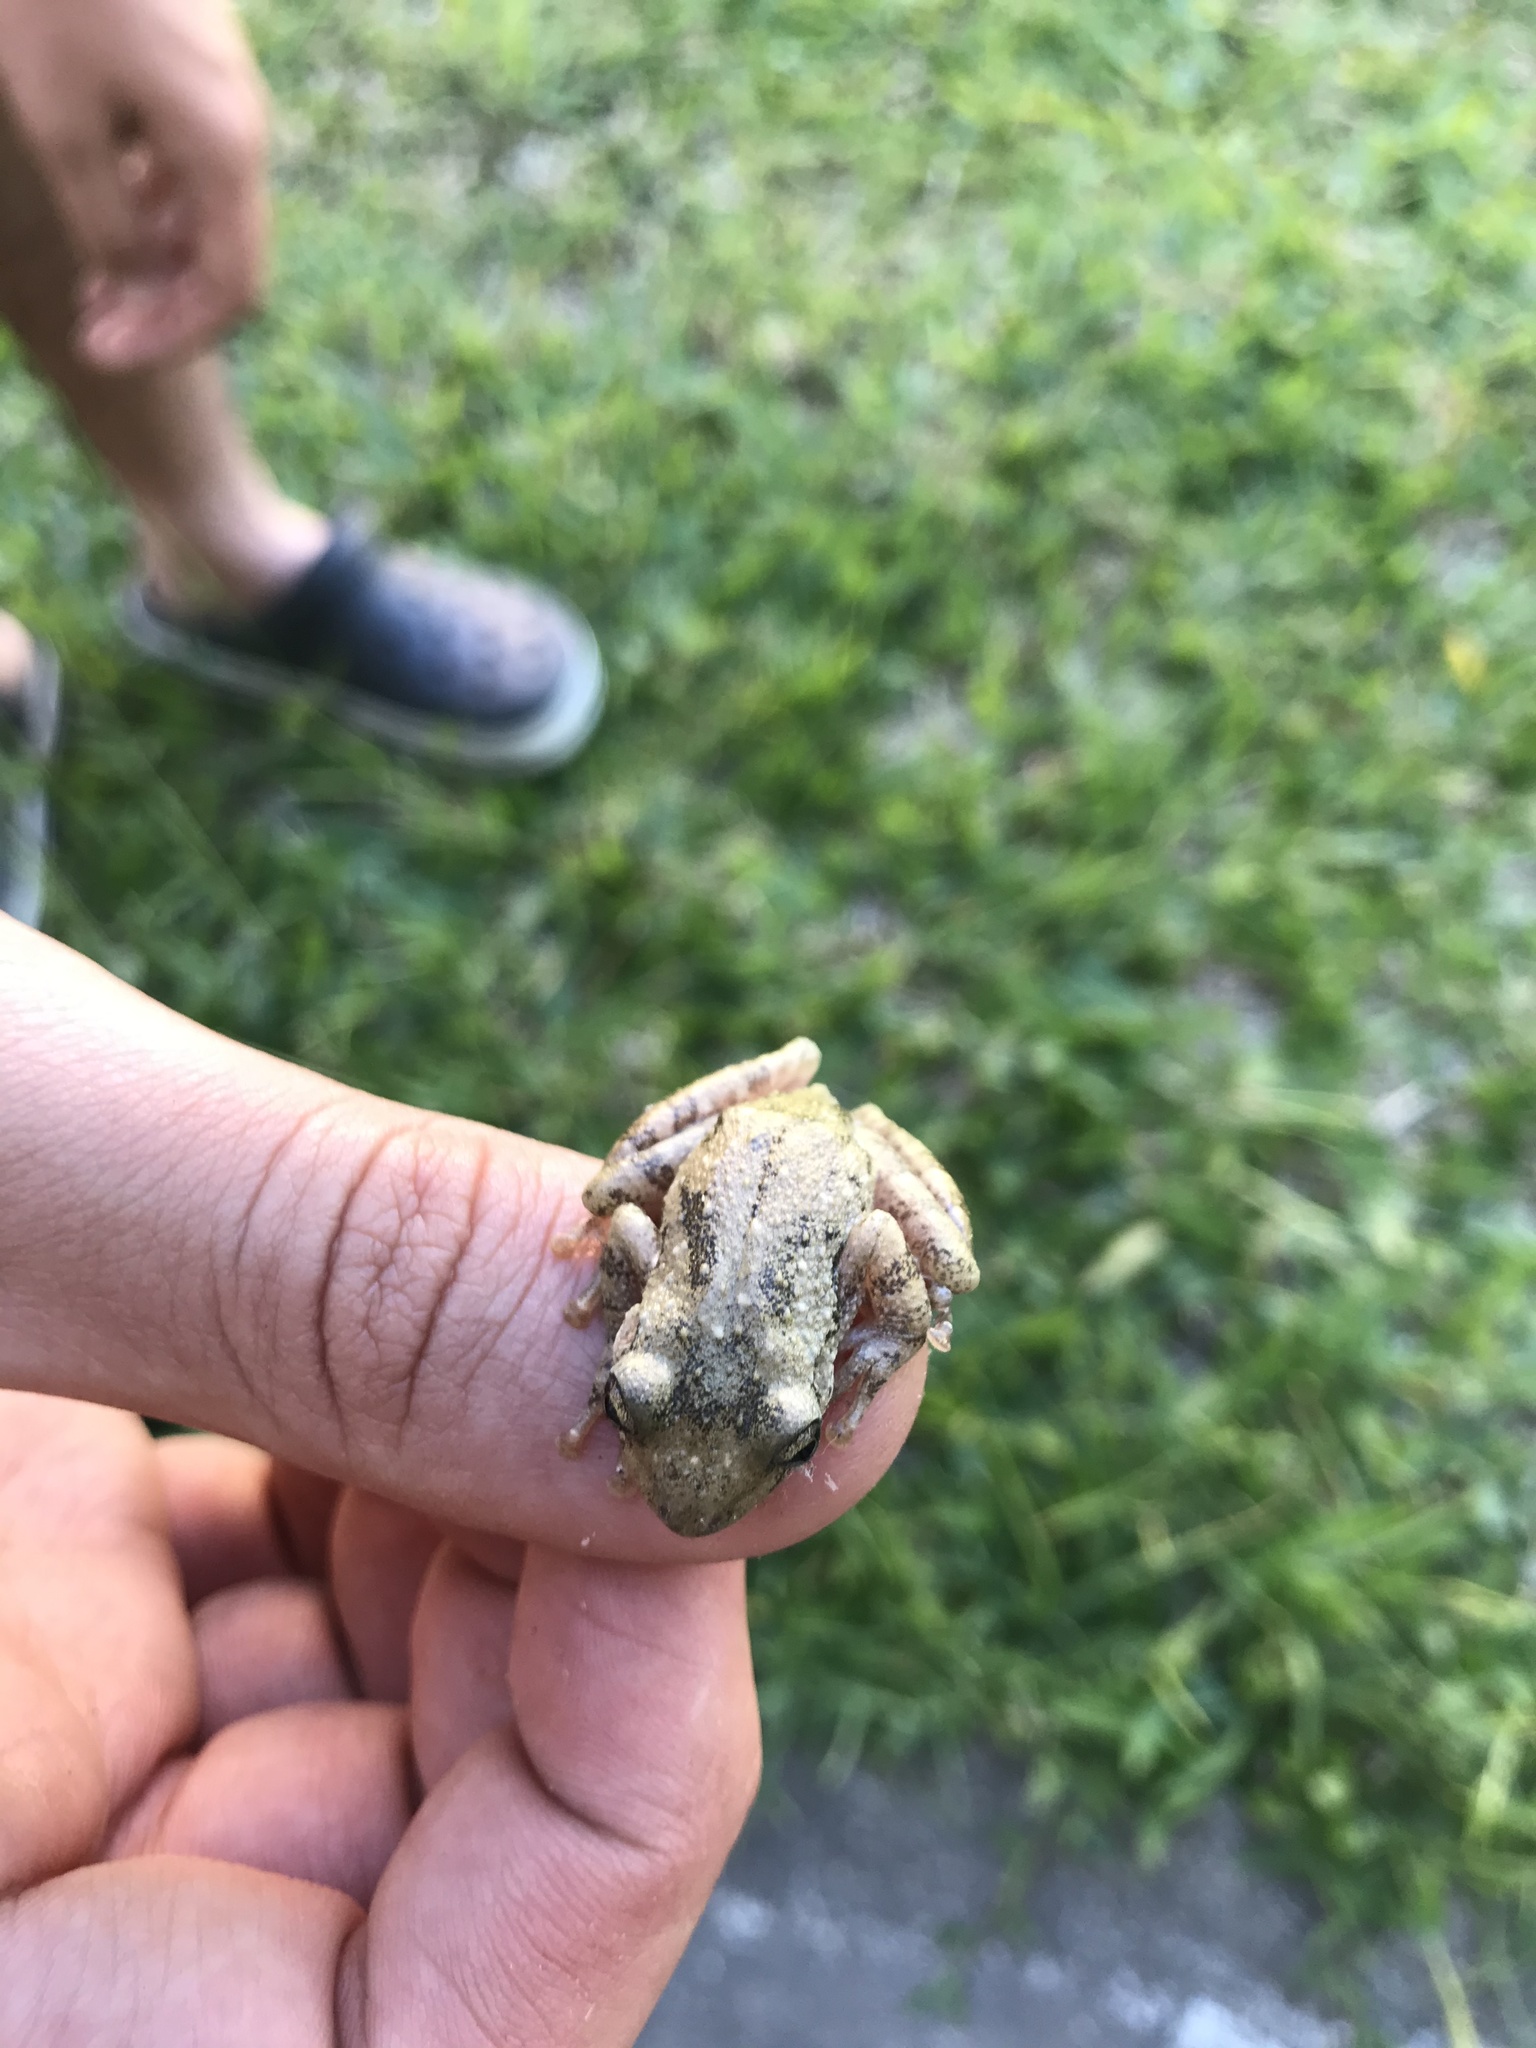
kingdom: Animalia
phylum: Chordata
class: Amphibia
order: Anura
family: Hylidae
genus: Scinax
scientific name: Scinax granulatus
